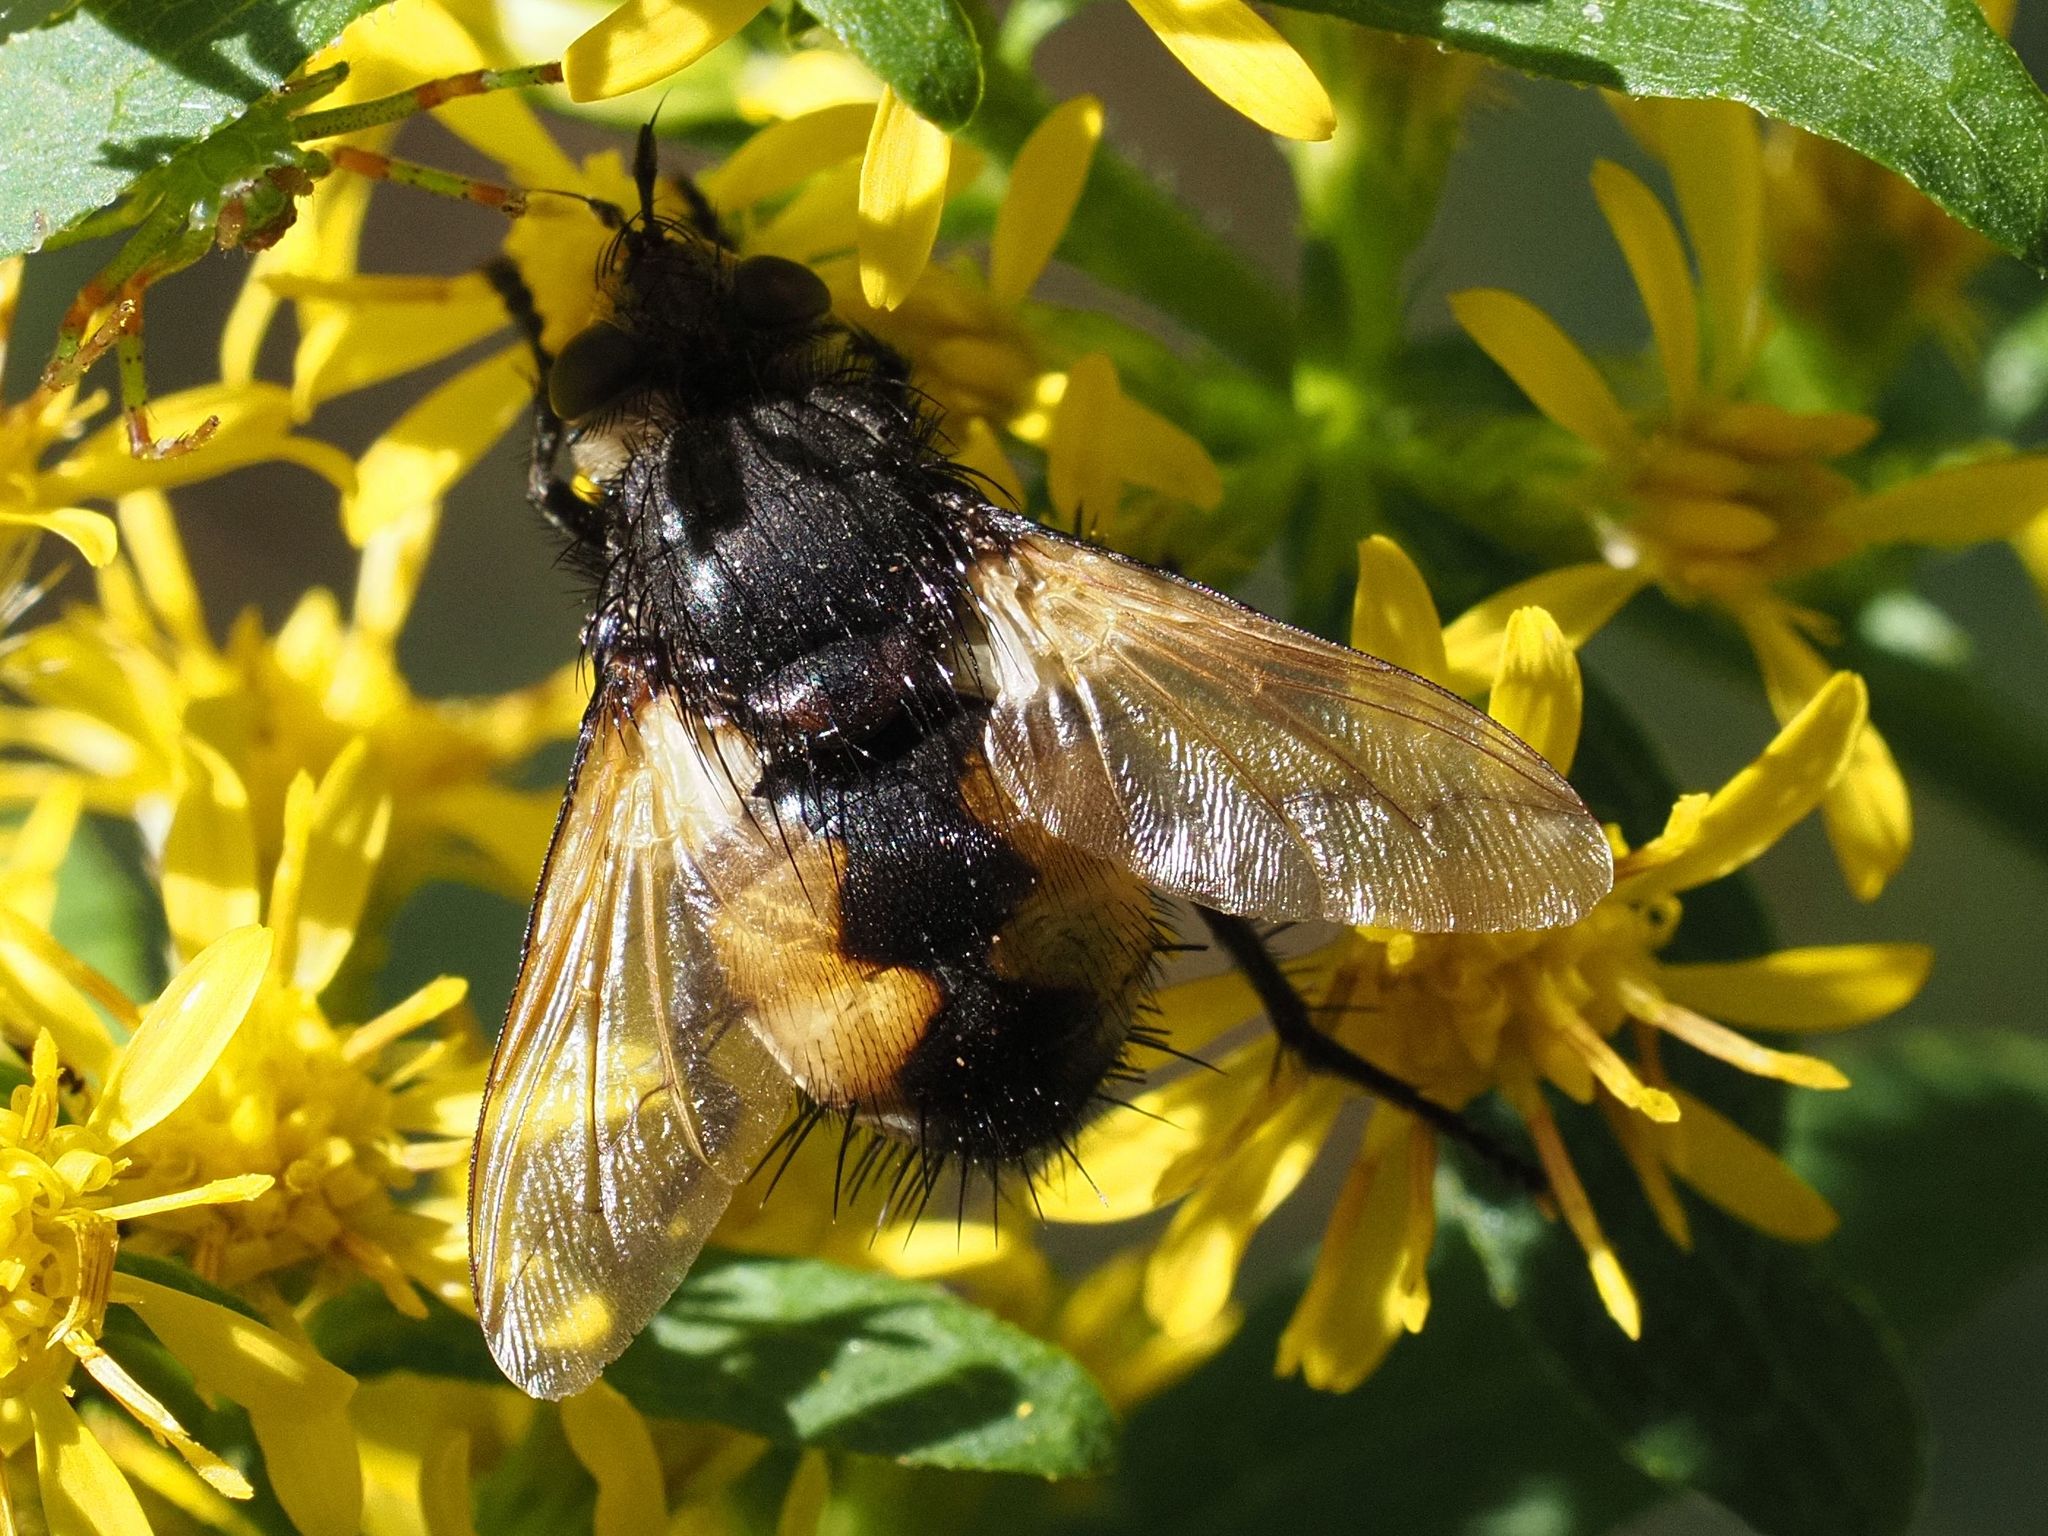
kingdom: Animalia
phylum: Arthropoda
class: Insecta
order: Diptera
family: Tachinidae
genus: Nowickia
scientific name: Nowickia ferox
